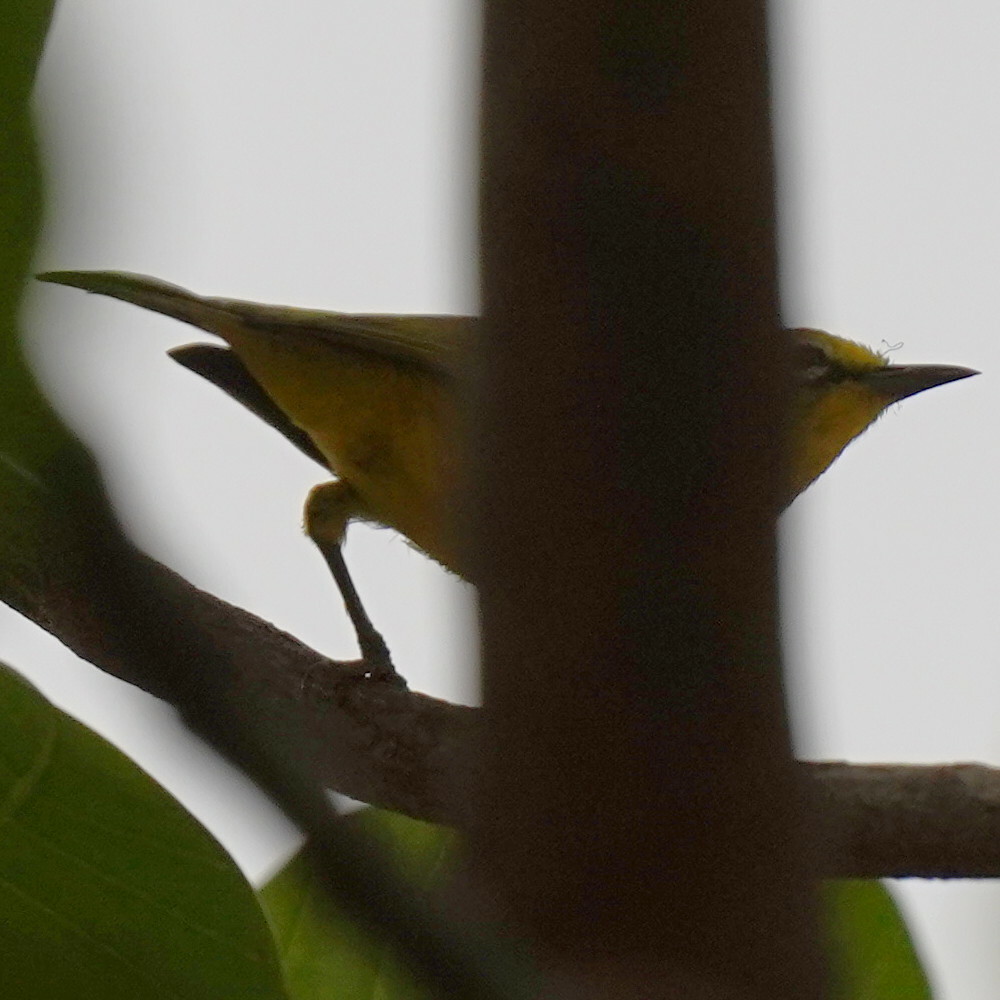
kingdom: Animalia
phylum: Chordata
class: Aves
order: Passeriformes
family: Zosteropidae
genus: Zosterops
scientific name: Zosterops senegalensis
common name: African yellow white-eye
